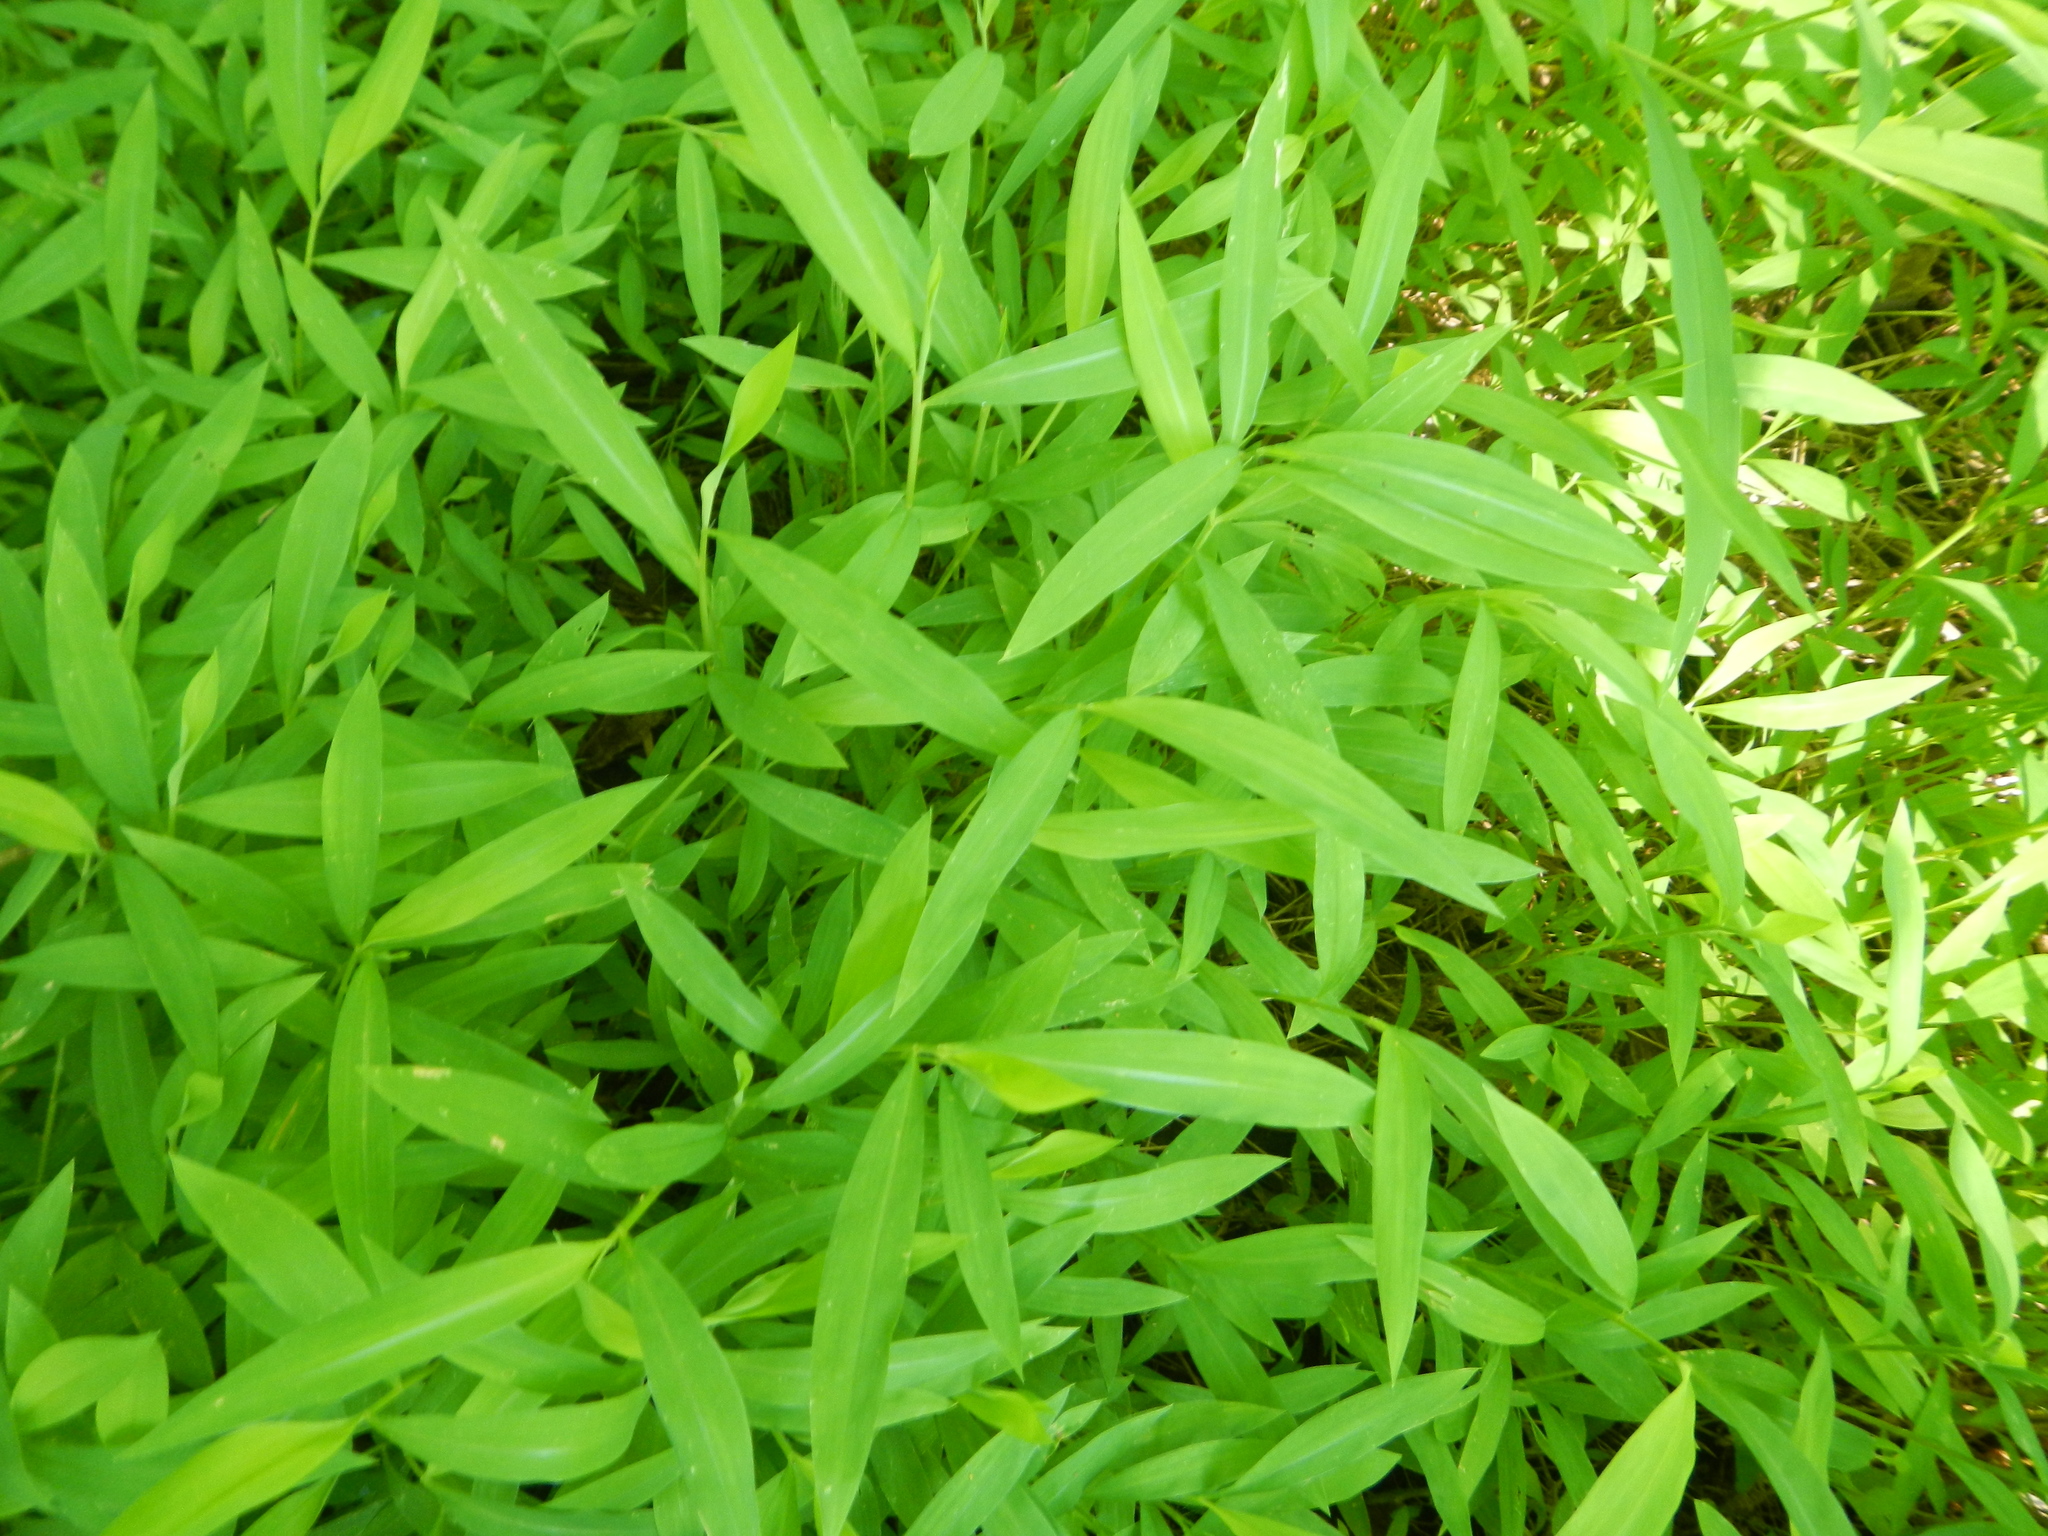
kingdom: Plantae
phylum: Tracheophyta
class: Liliopsida
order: Poales
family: Poaceae
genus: Microstegium
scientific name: Microstegium vimineum
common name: Japanese stiltgrass
